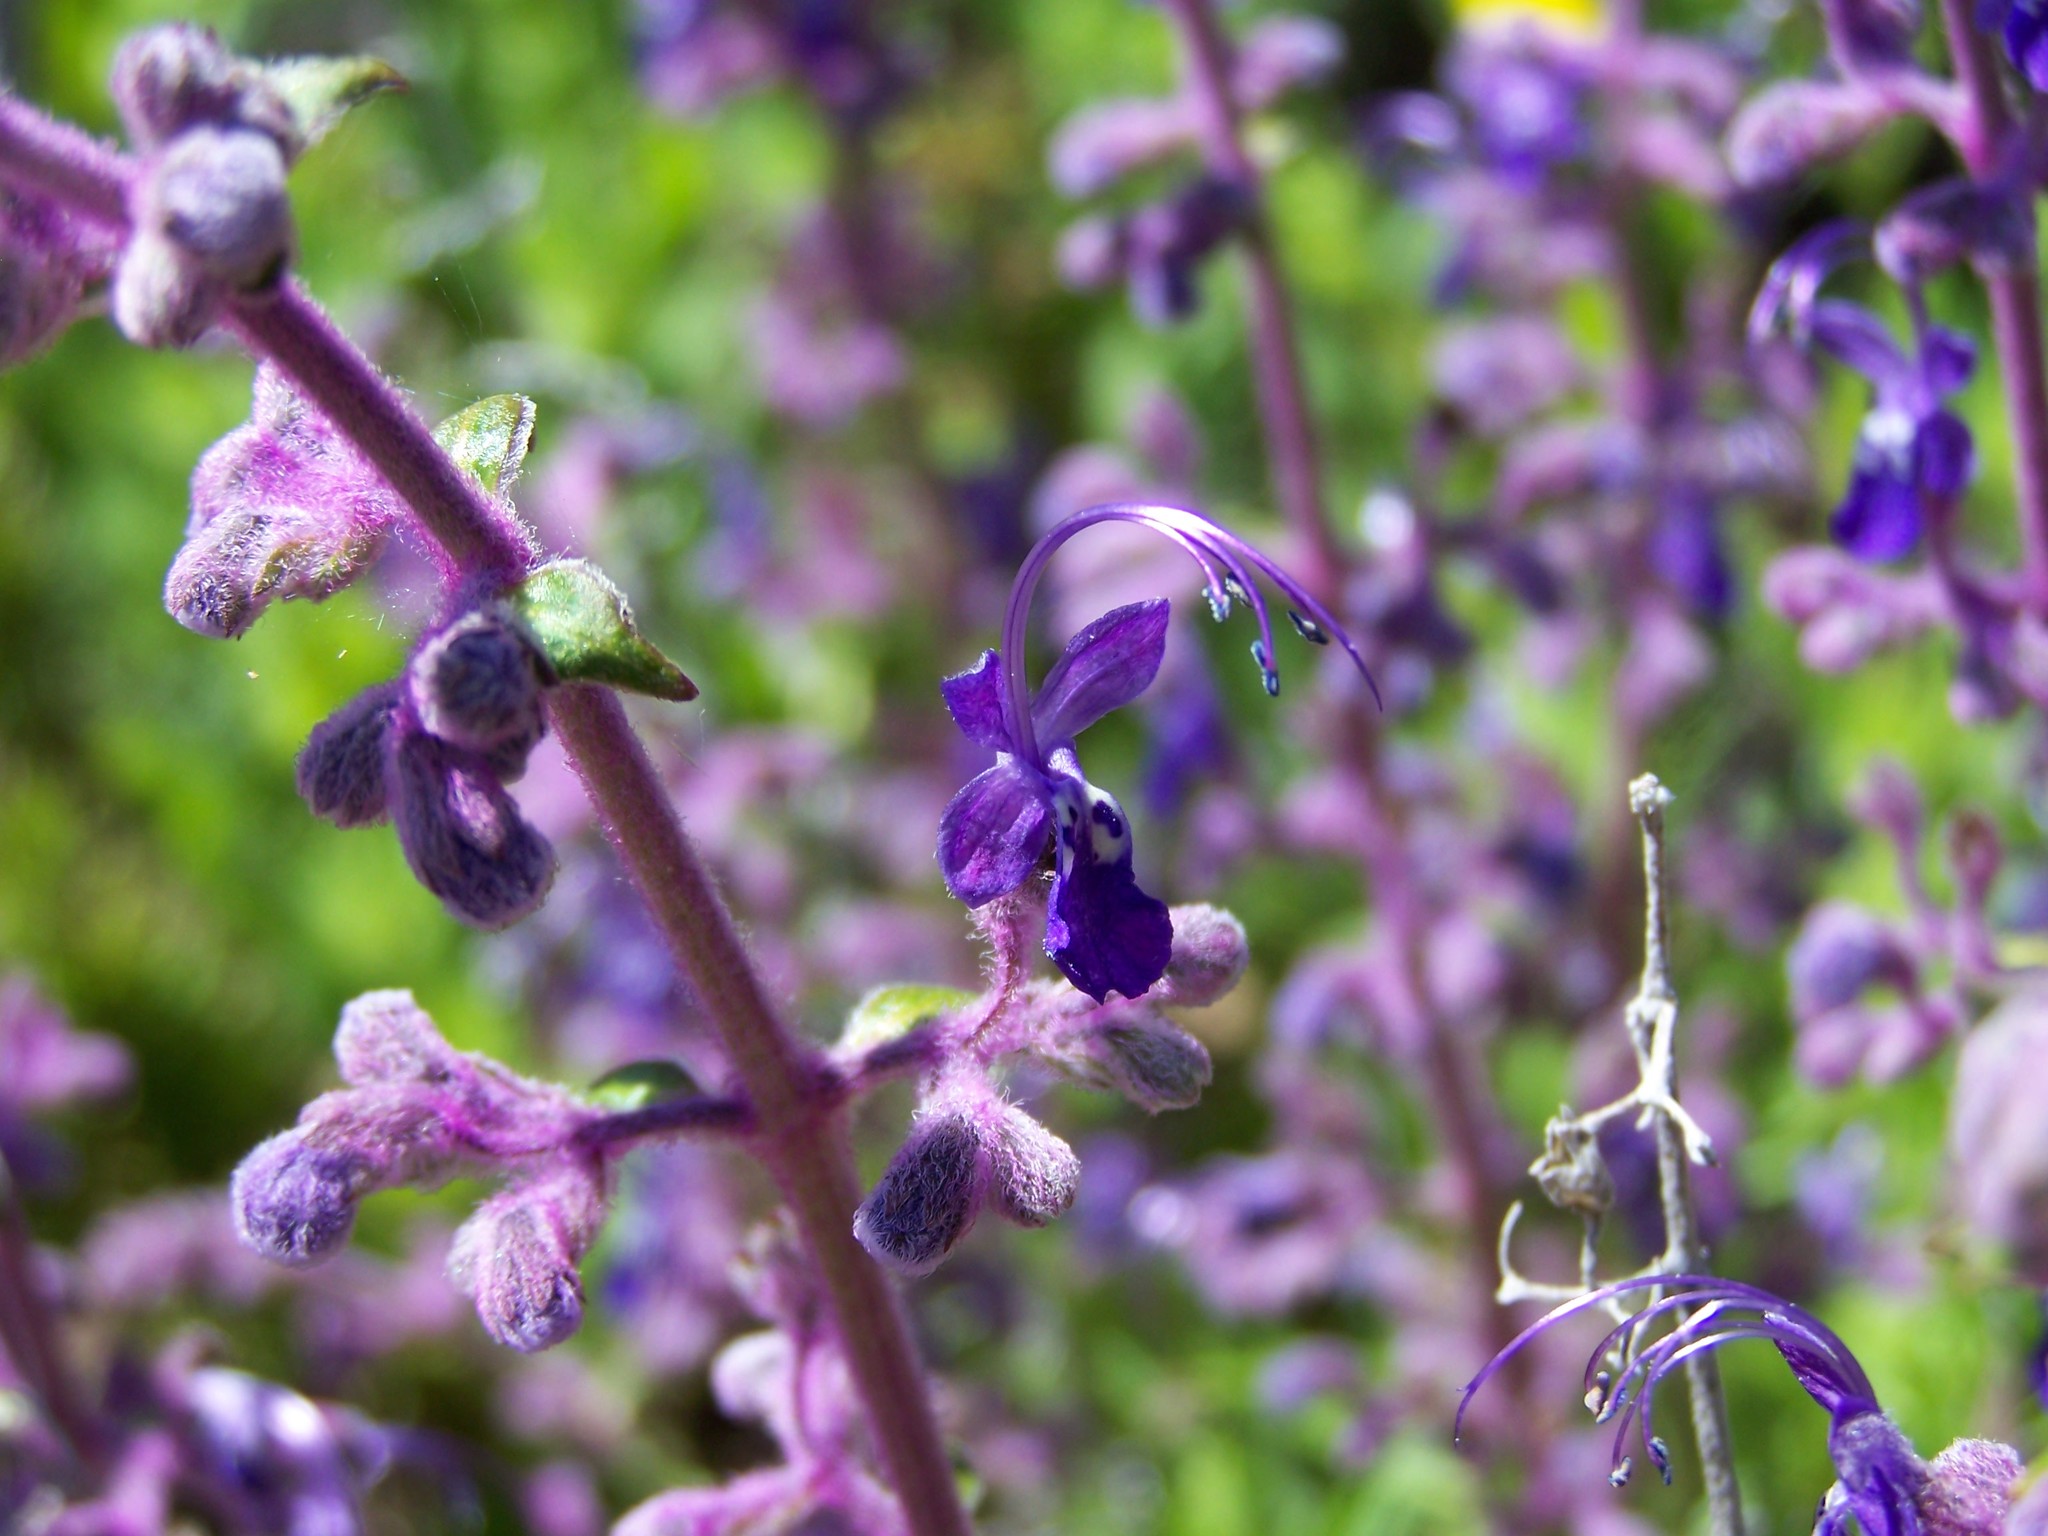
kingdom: Plantae
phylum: Tracheophyta
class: Magnoliopsida
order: Lamiales
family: Lamiaceae
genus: Trichostema
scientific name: Trichostema parishii
